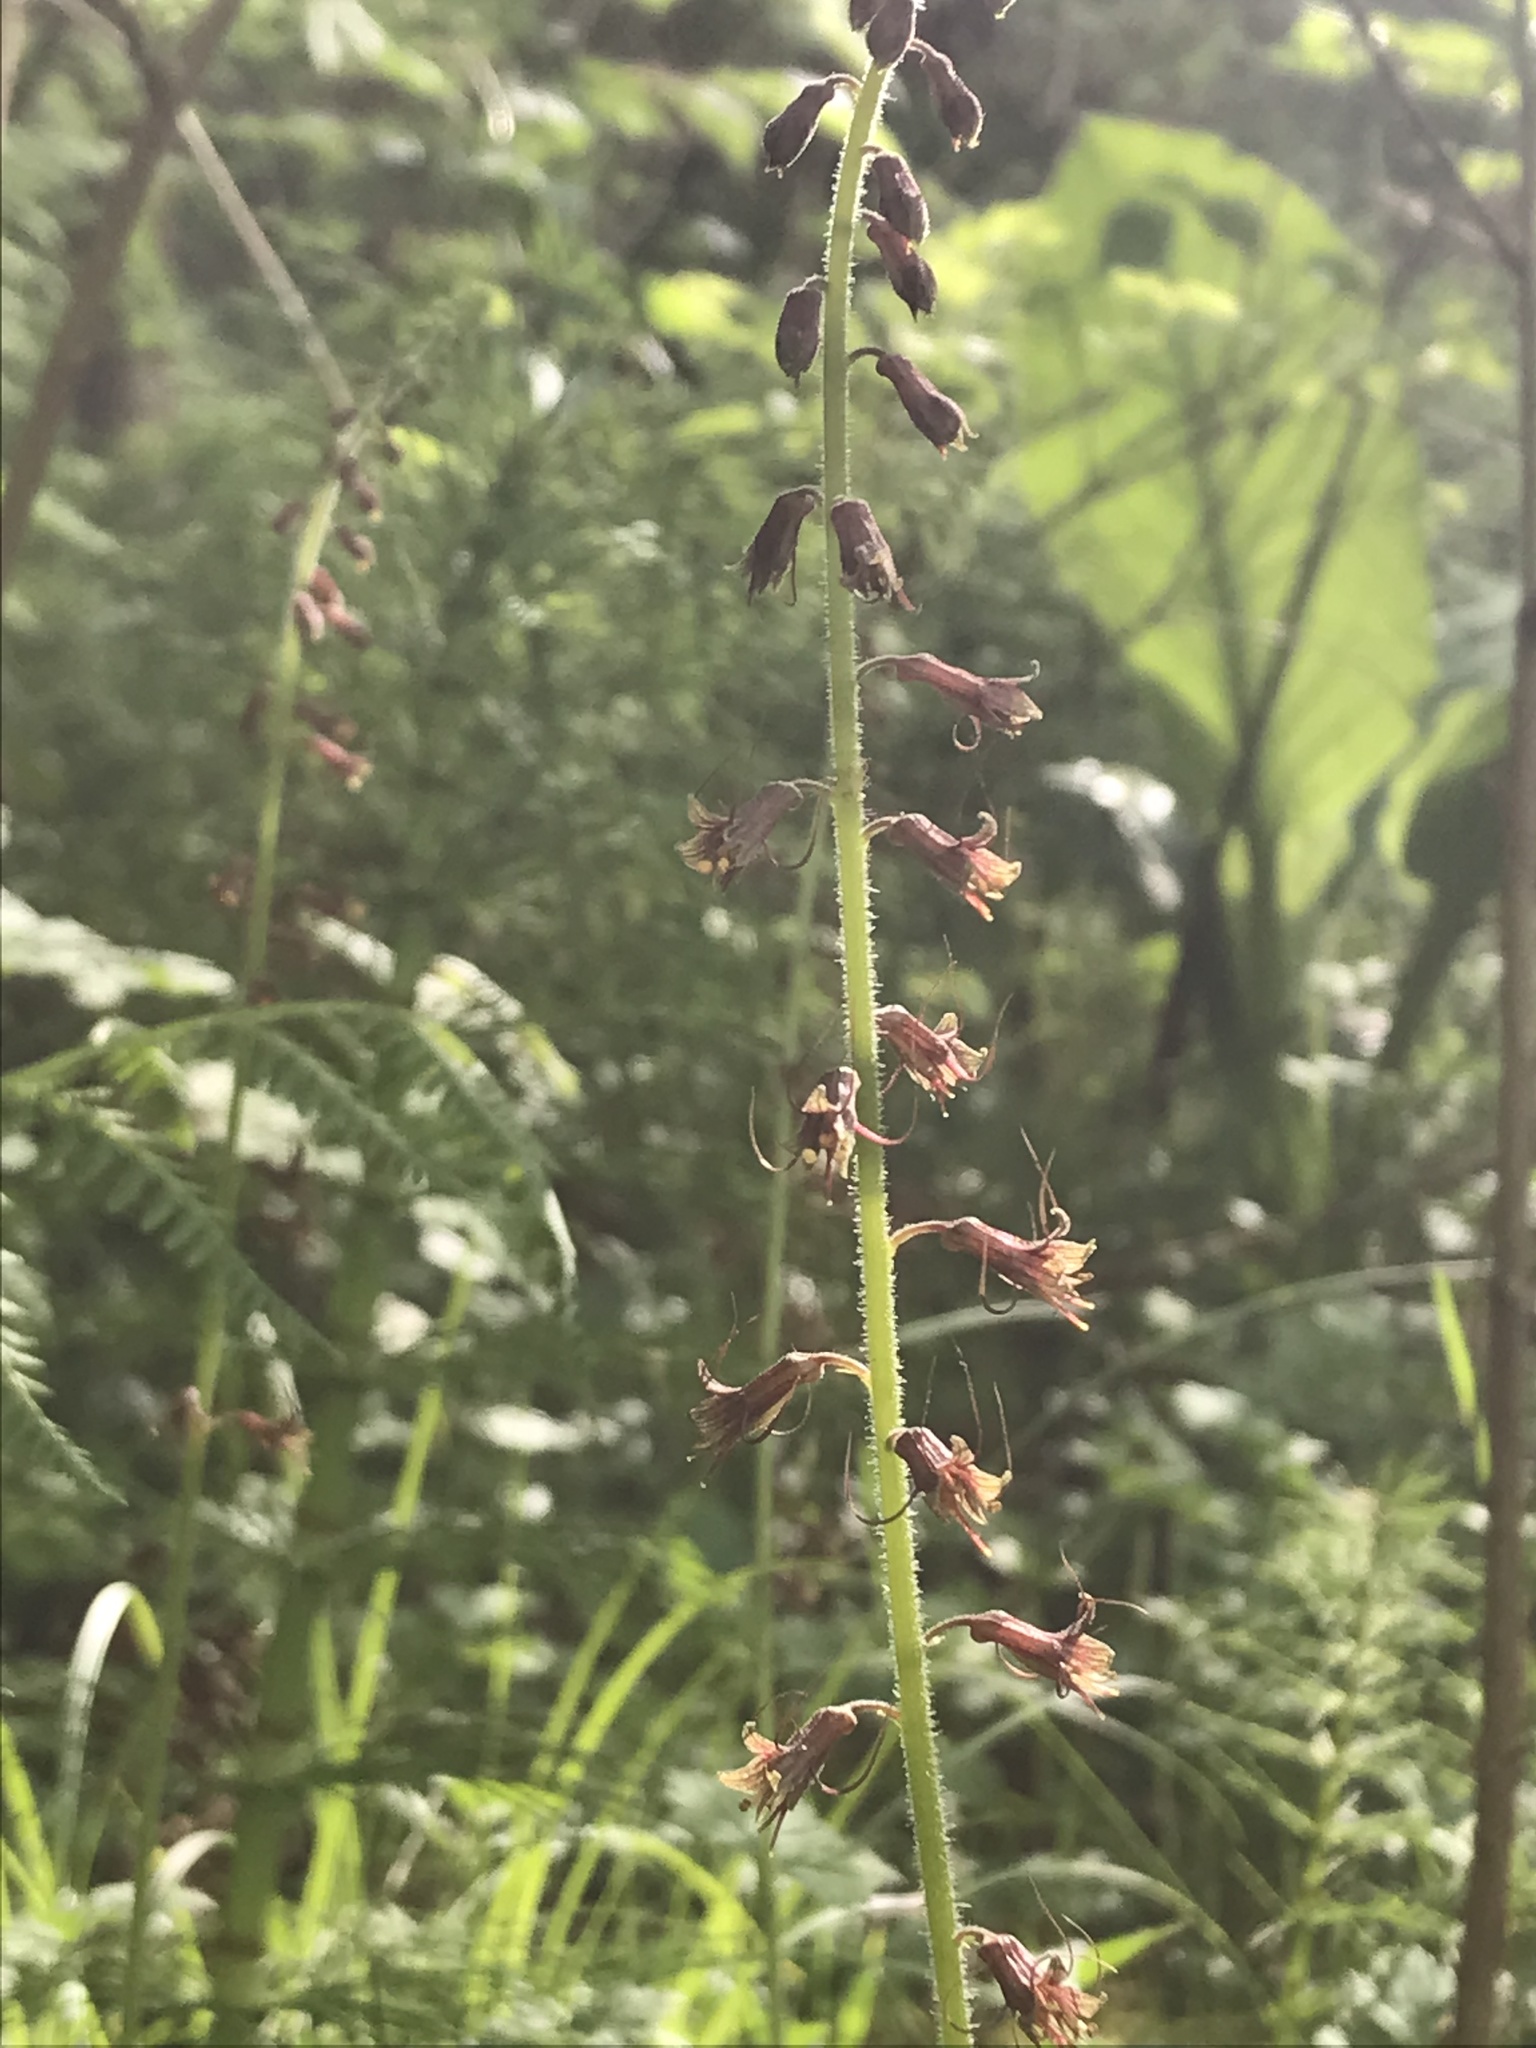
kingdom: Plantae
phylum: Tracheophyta
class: Magnoliopsida
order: Saxifragales
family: Saxifragaceae
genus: Tolmiea
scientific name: Tolmiea menziesii
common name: Pick-a-back-plant
